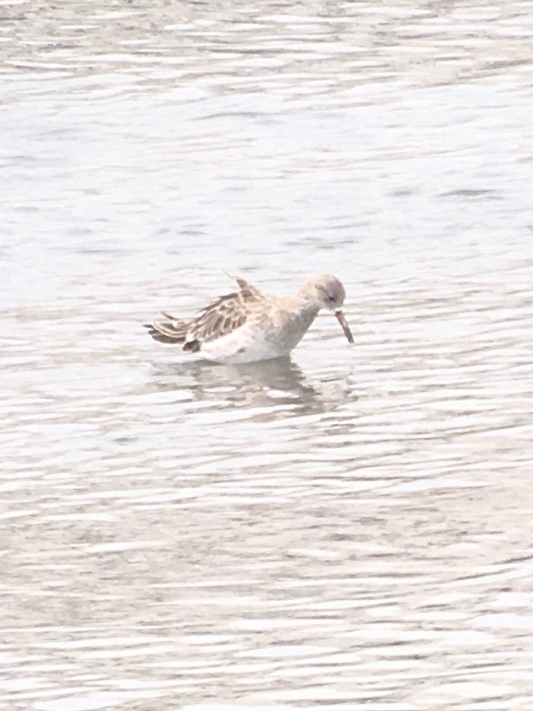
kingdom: Animalia
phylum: Chordata
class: Aves
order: Charadriiformes
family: Scolopacidae
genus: Calidris
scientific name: Calidris pugnax
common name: Ruff
